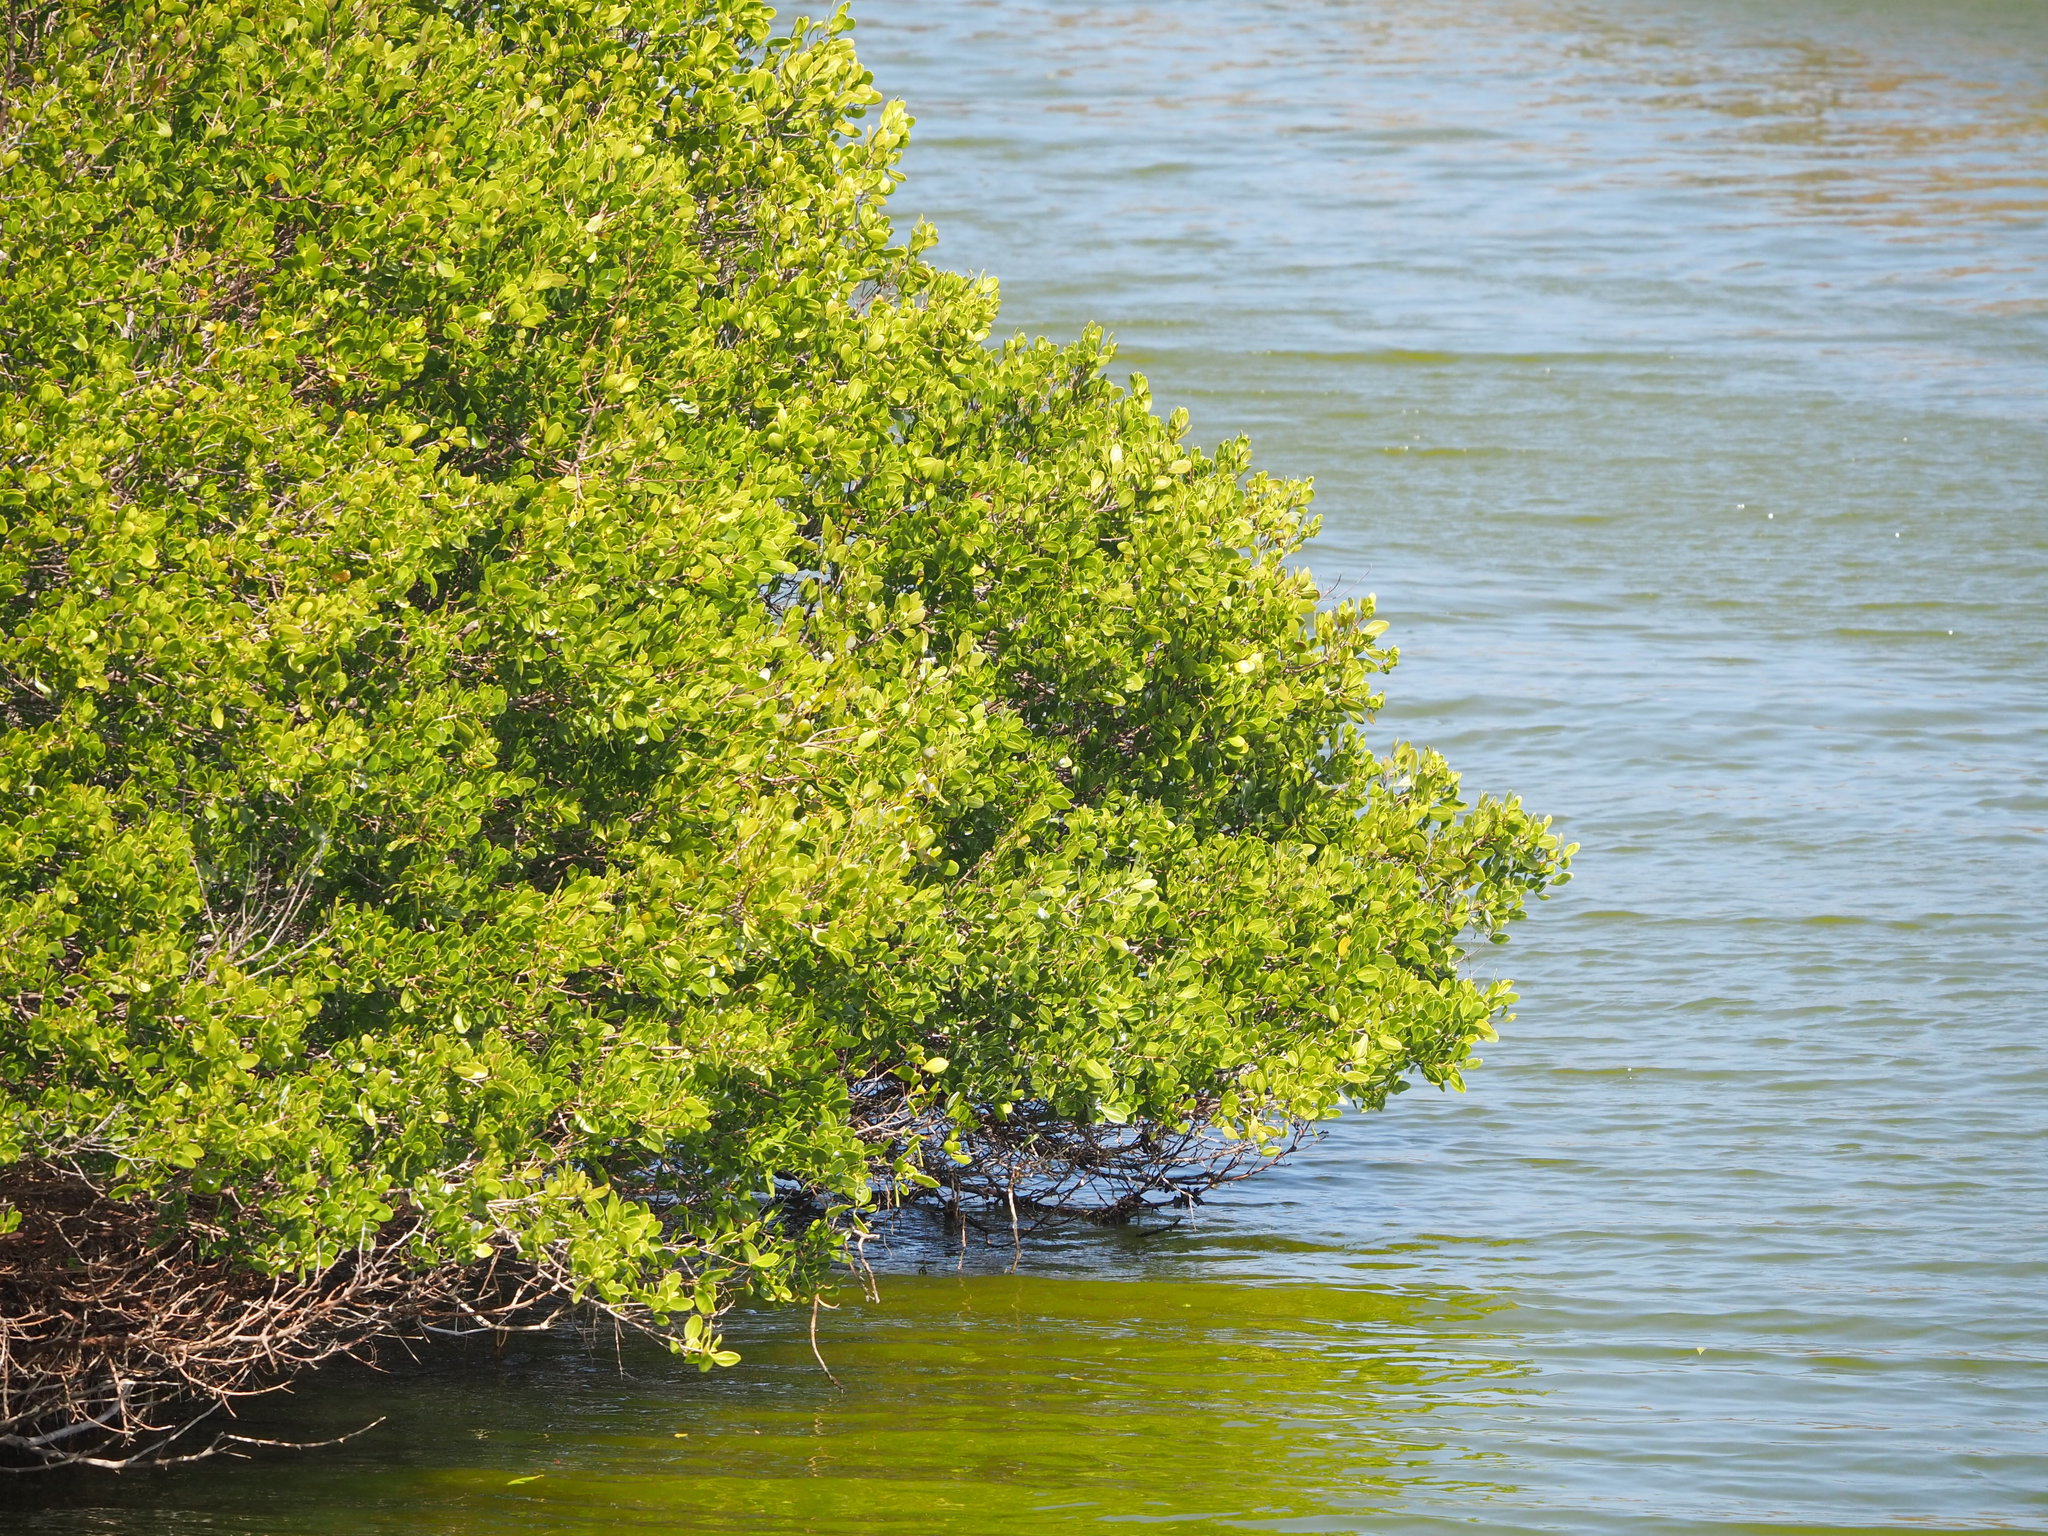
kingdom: Plantae
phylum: Tracheophyta
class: Magnoliopsida
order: Myrtales
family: Combretaceae
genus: Lumnitzera
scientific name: Lumnitzera racemosa
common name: White-flowered black mangrove
